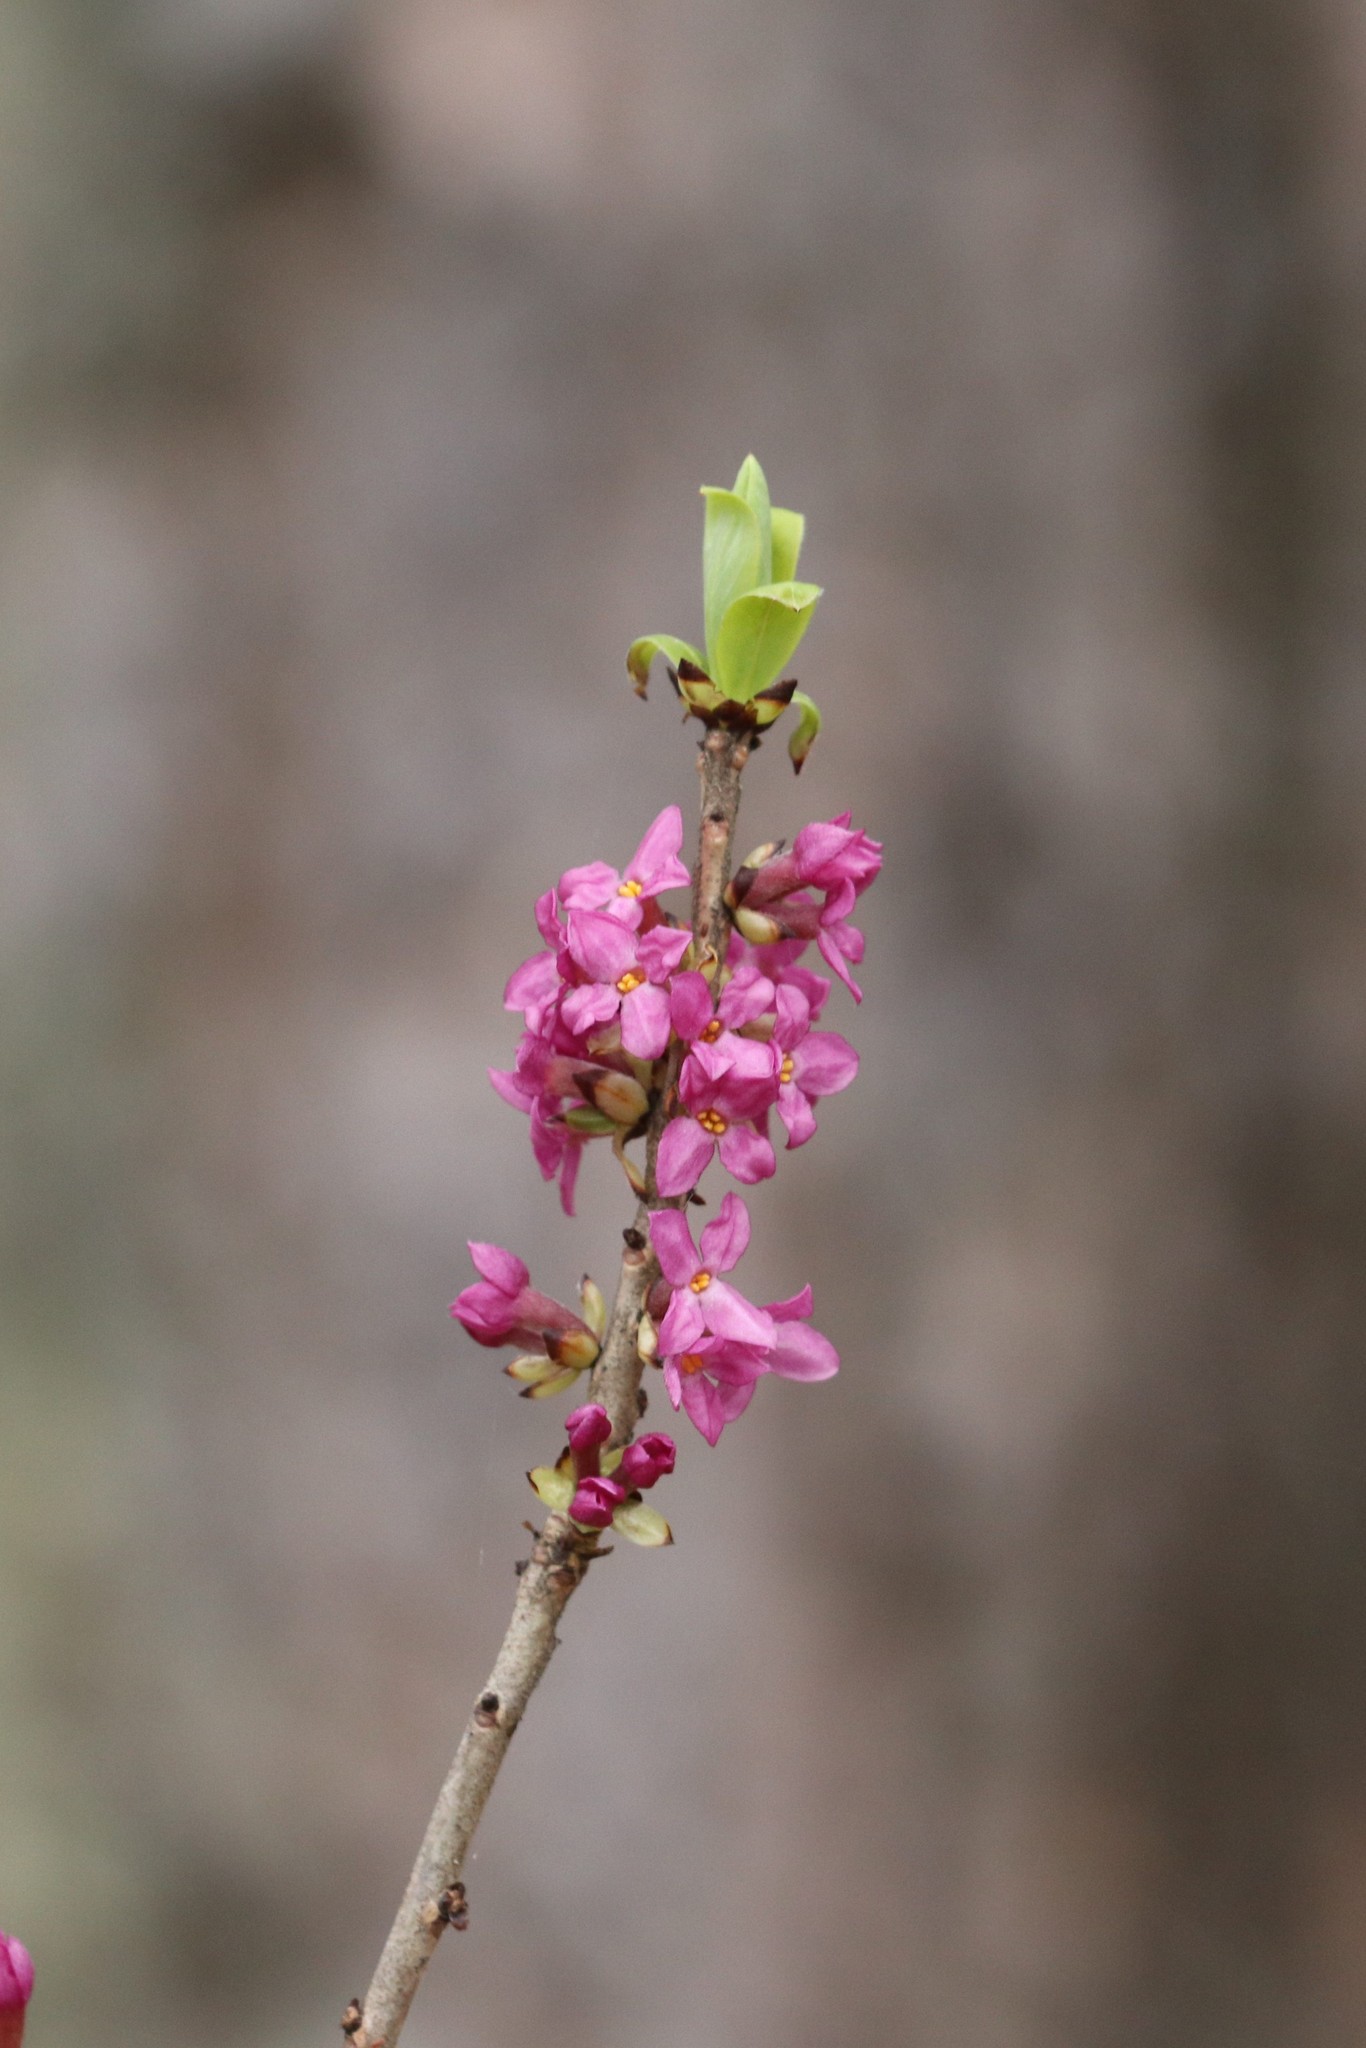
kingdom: Plantae
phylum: Tracheophyta
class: Magnoliopsida
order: Malvales
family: Thymelaeaceae
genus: Daphne
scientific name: Daphne mezereum
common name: Mezereon
